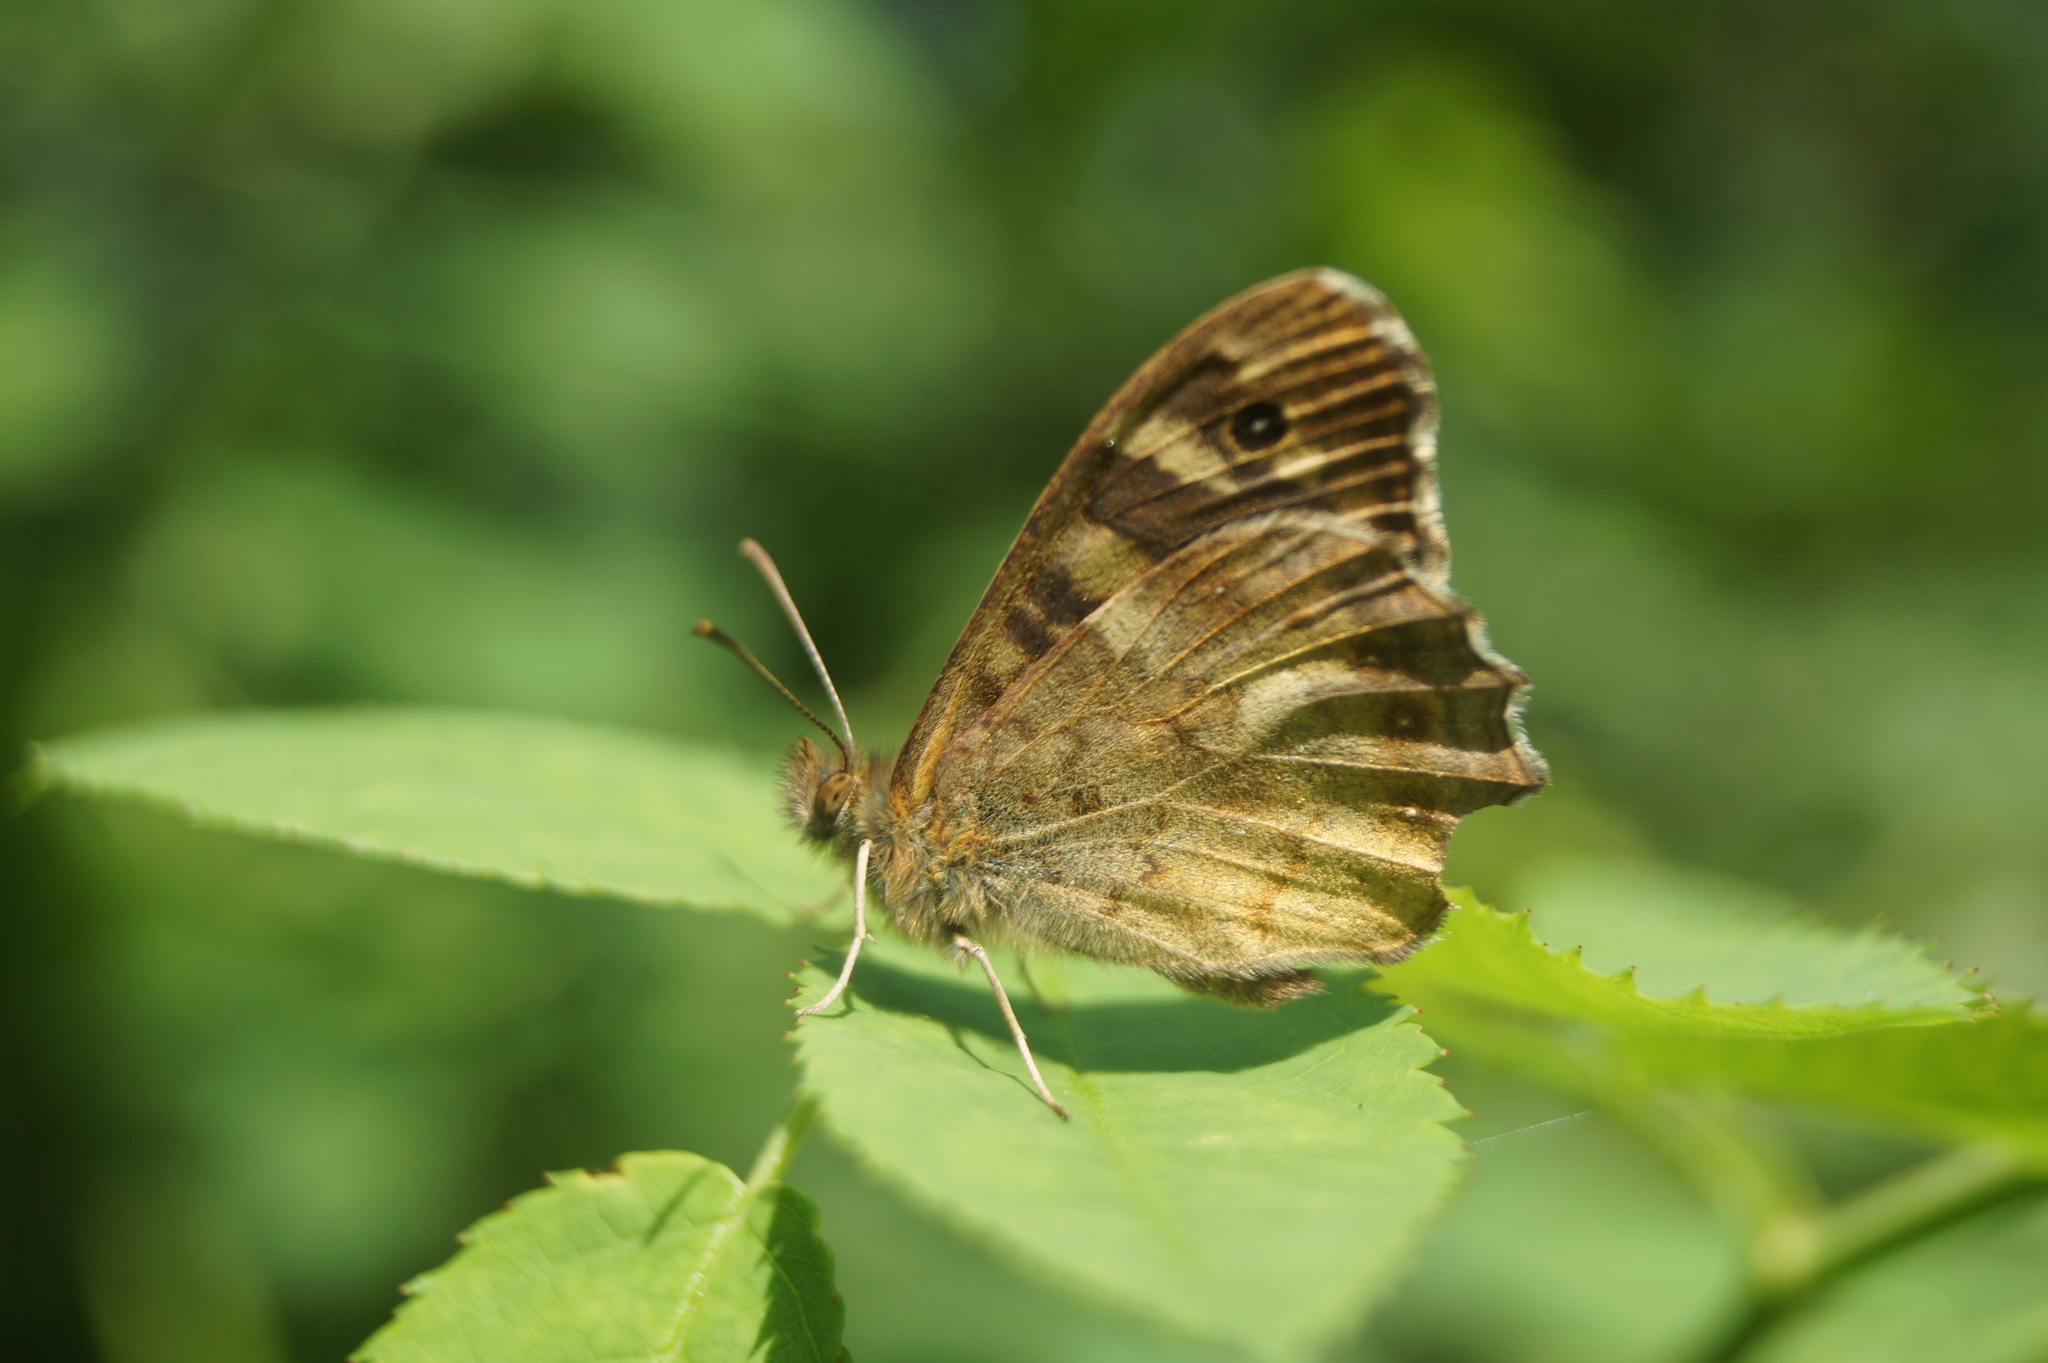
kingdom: Animalia
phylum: Arthropoda
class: Insecta
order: Lepidoptera
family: Nymphalidae
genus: Pararge
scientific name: Pararge aegeria
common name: Speckled wood
